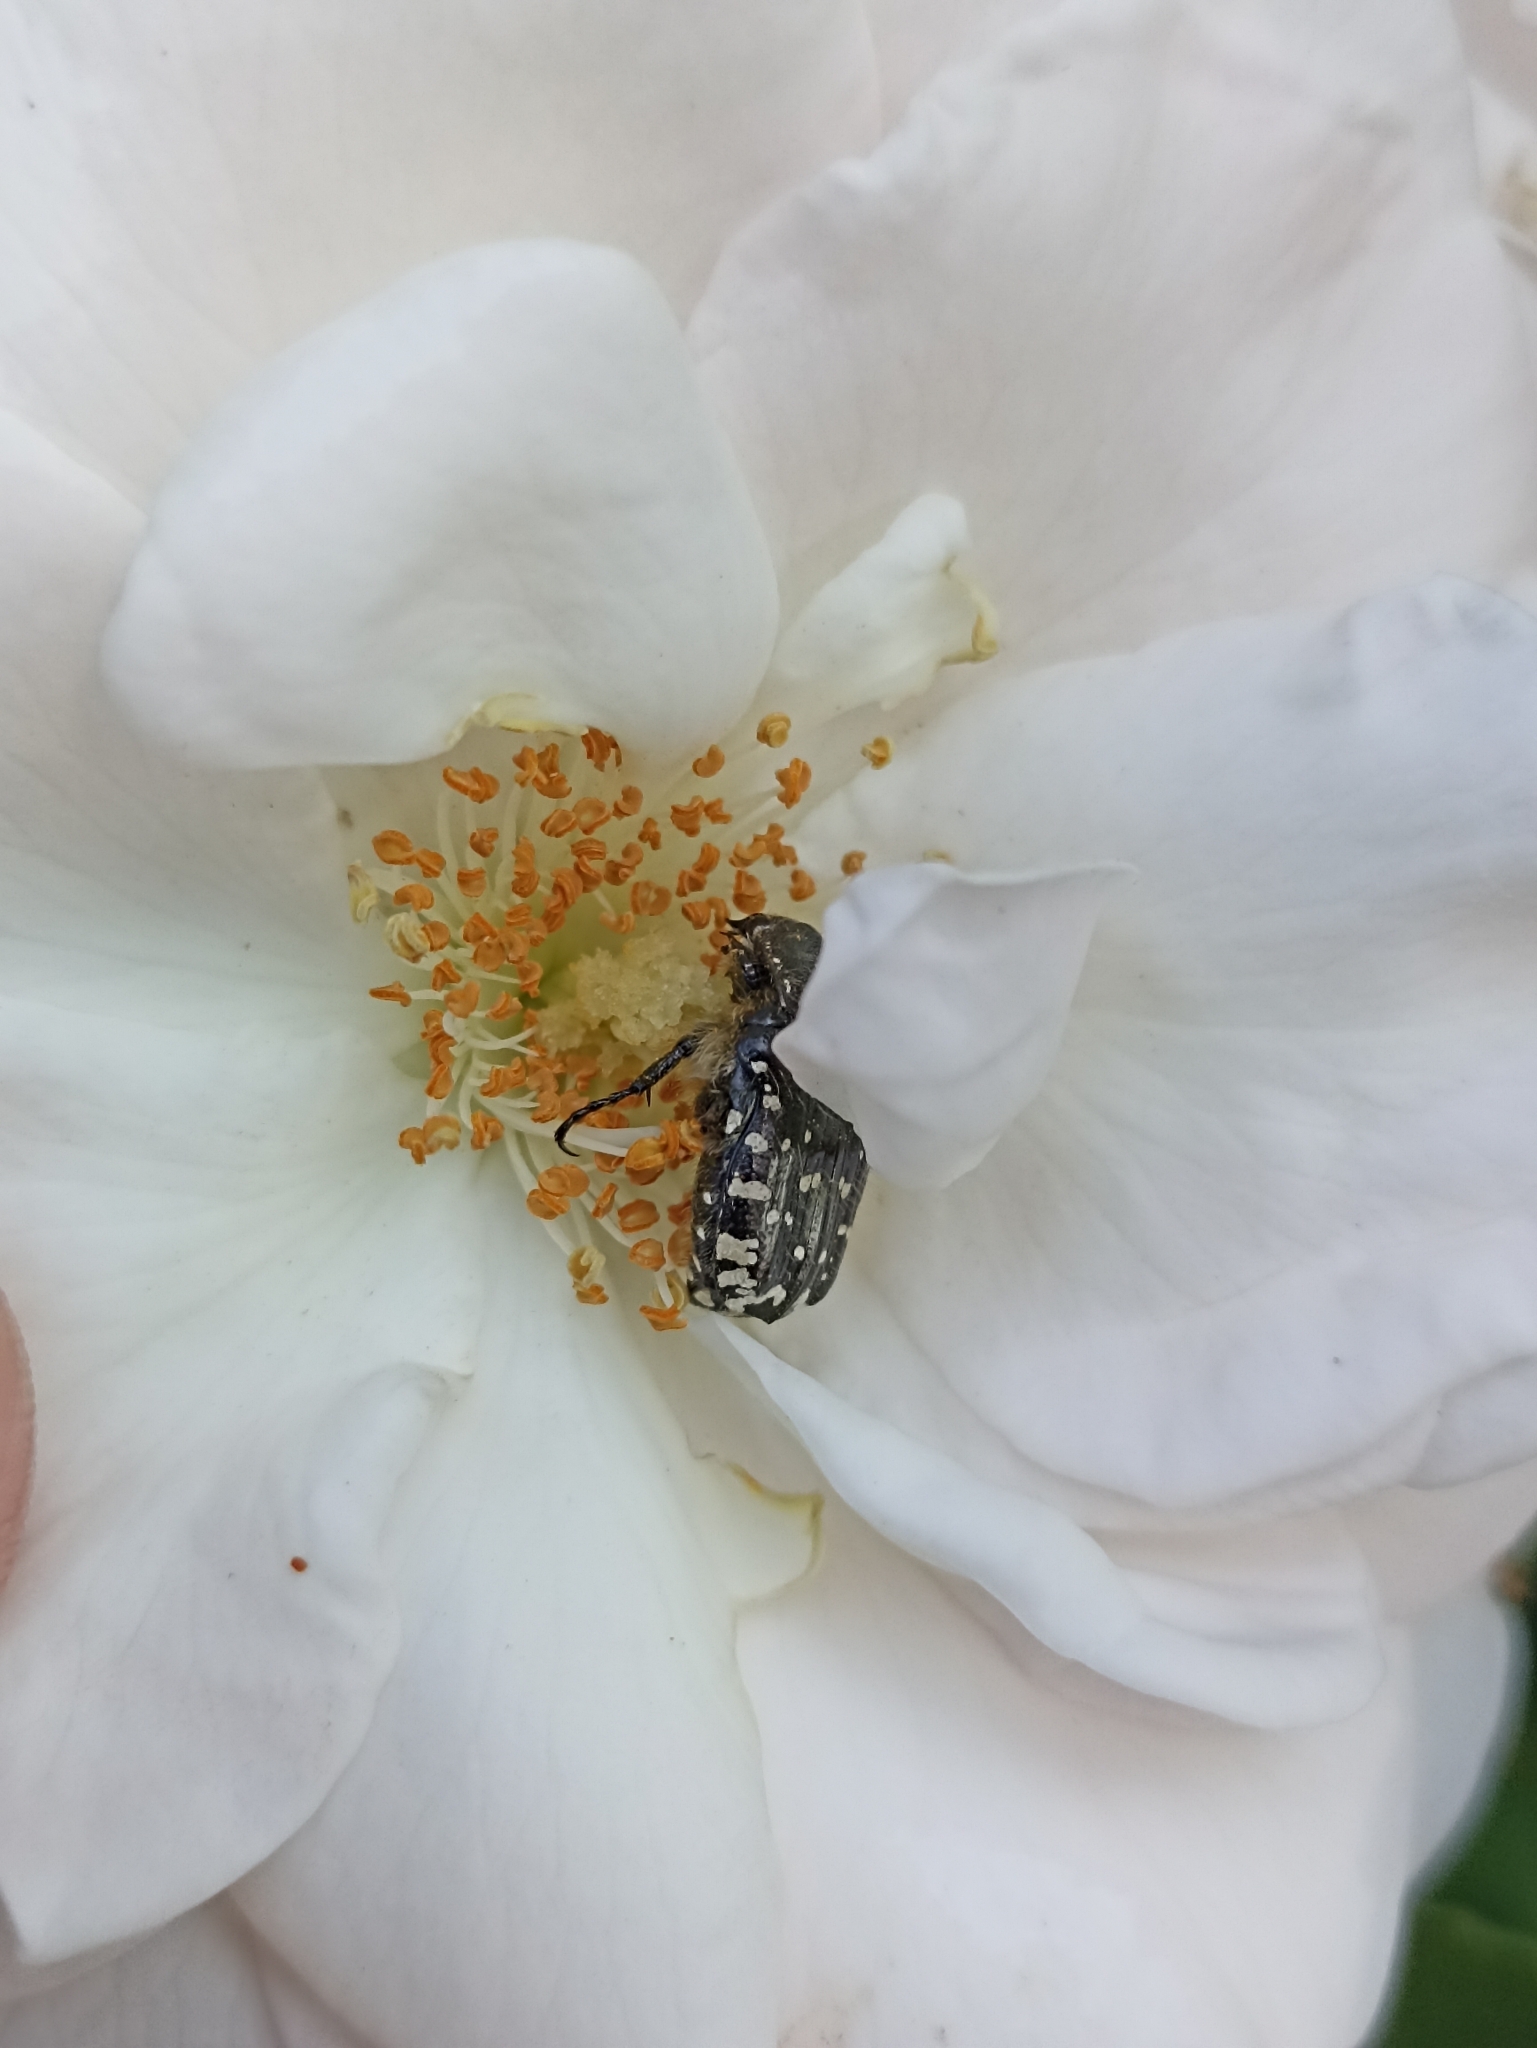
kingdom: Animalia
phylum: Arthropoda
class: Insecta
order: Coleoptera
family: Scarabaeidae
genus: Oxythyrea
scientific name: Oxythyrea funesta
